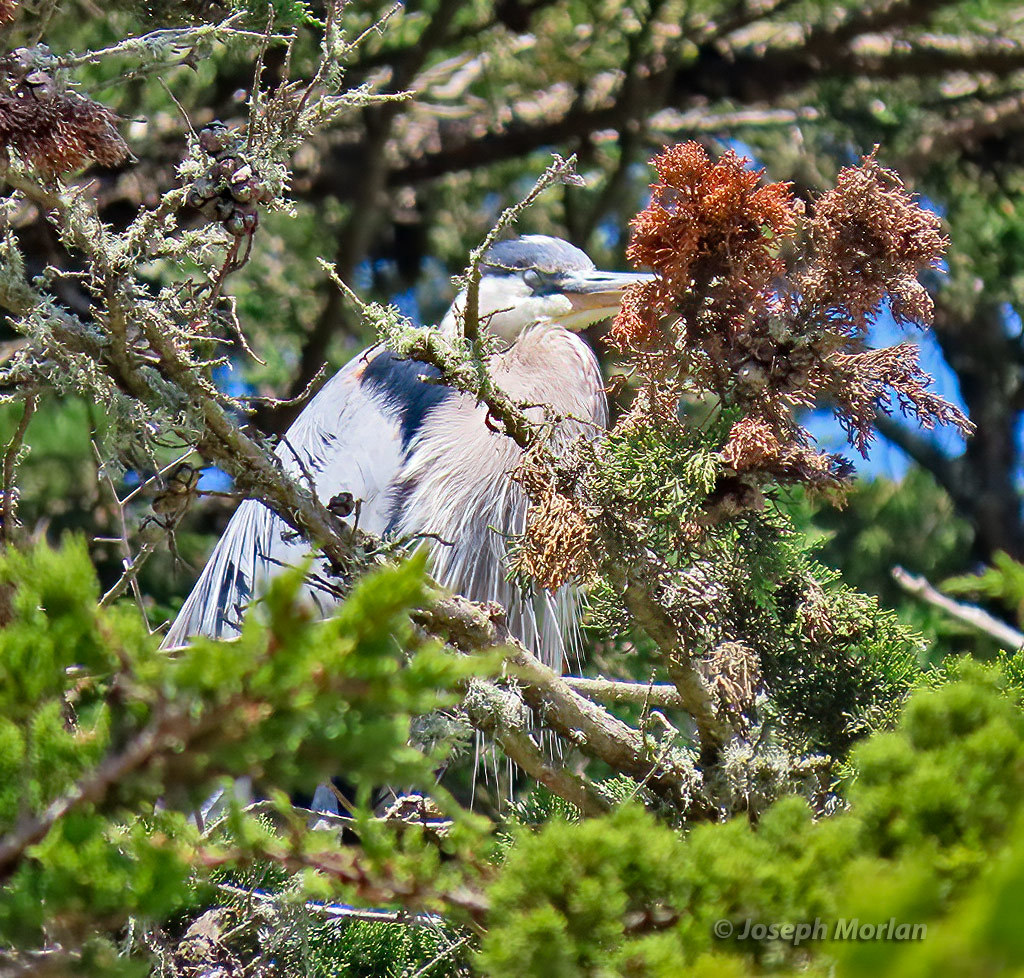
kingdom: Animalia
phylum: Chordata
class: Aves
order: Pelecaniformes
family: Ardeidae
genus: Ardea
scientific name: Ardea herodias
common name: Great blue heron
